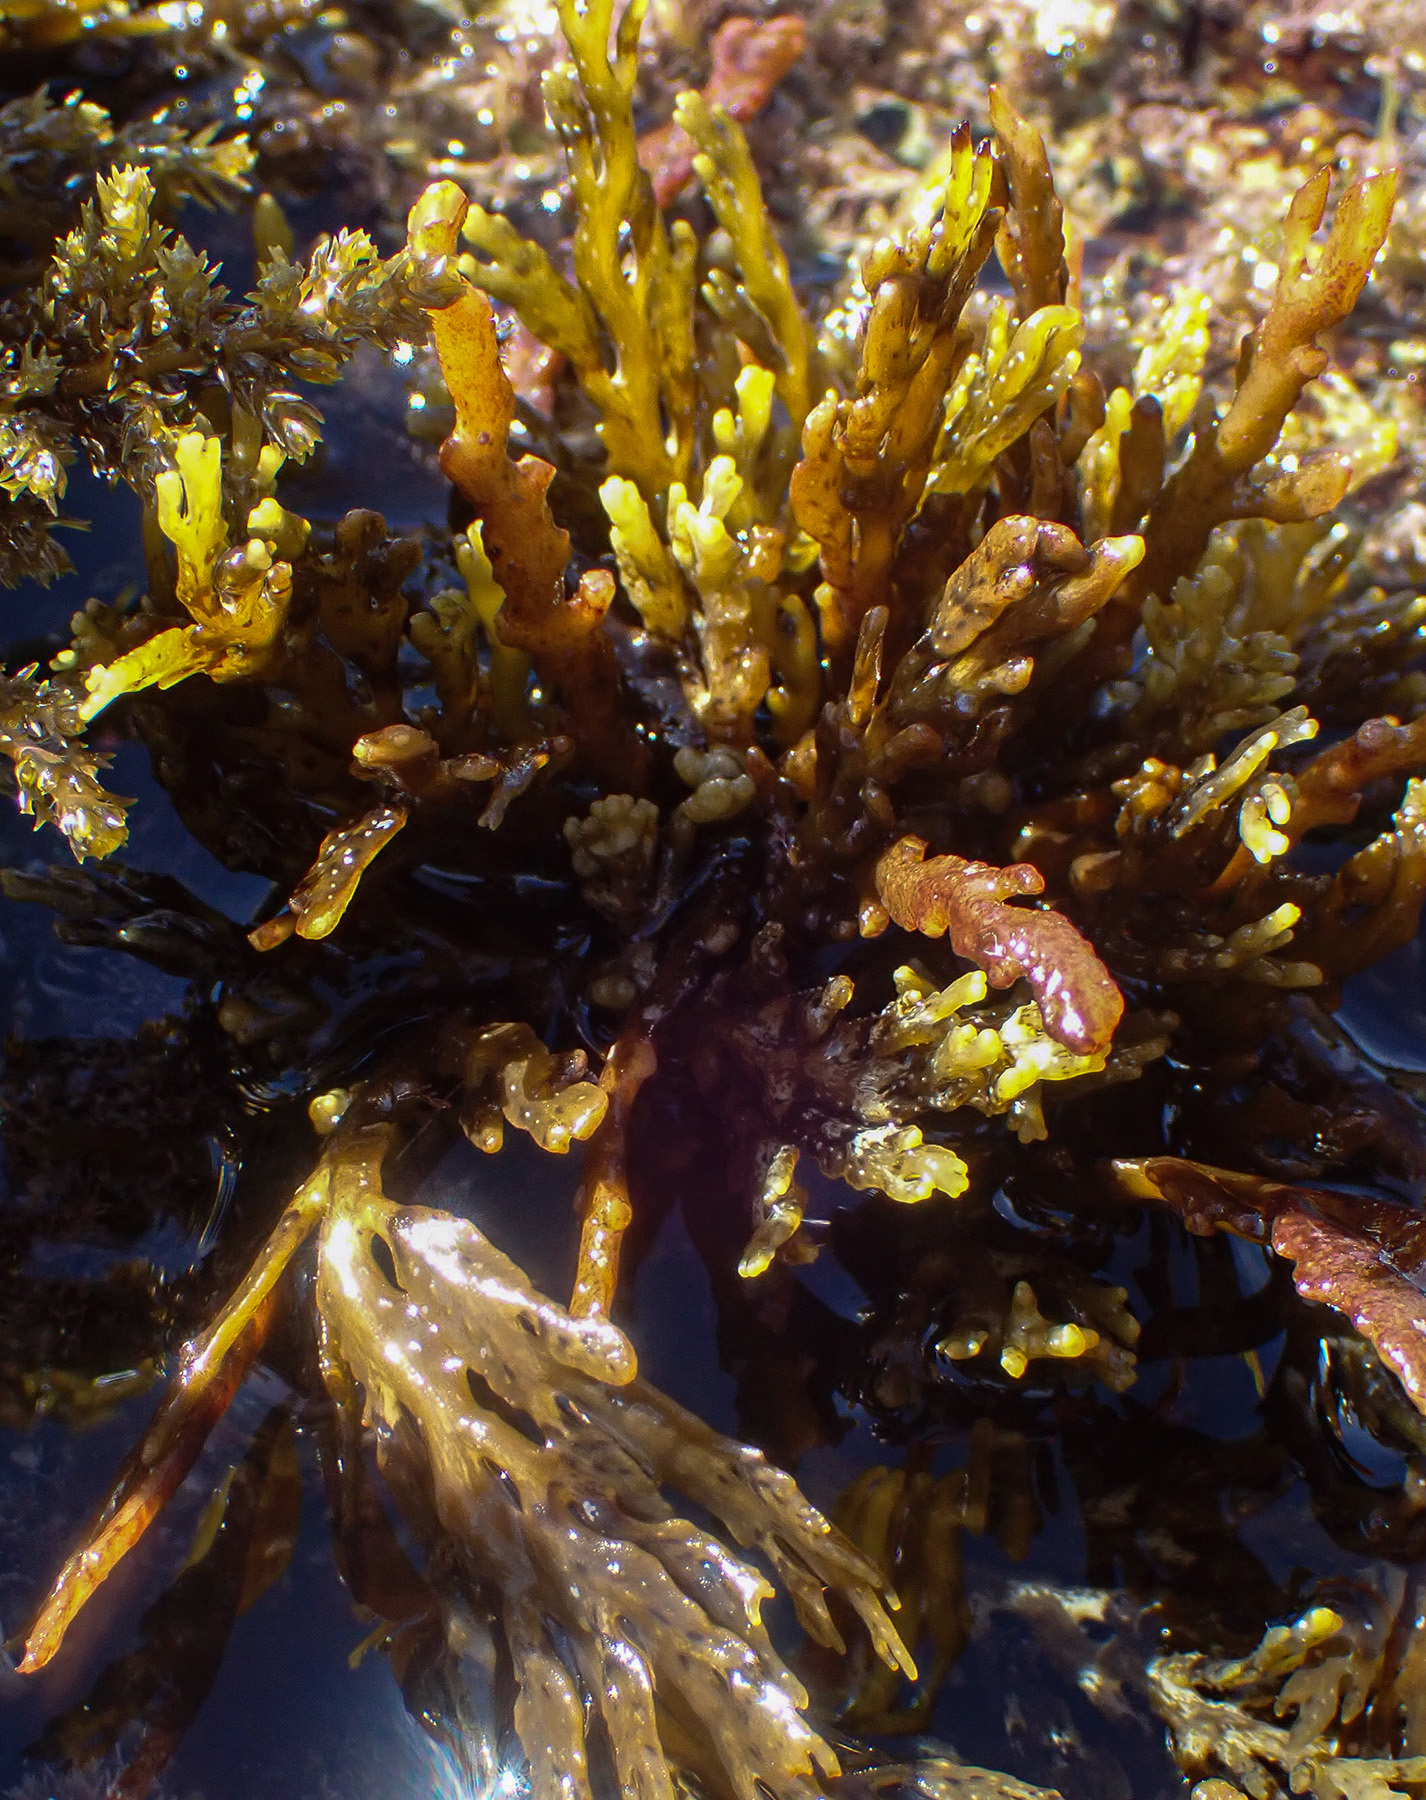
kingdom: Chromista
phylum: Ochrophyta
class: Phaeophyceae
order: Fucales
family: Sargassaceae
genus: Cystoseira
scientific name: Cystoseira compressa
